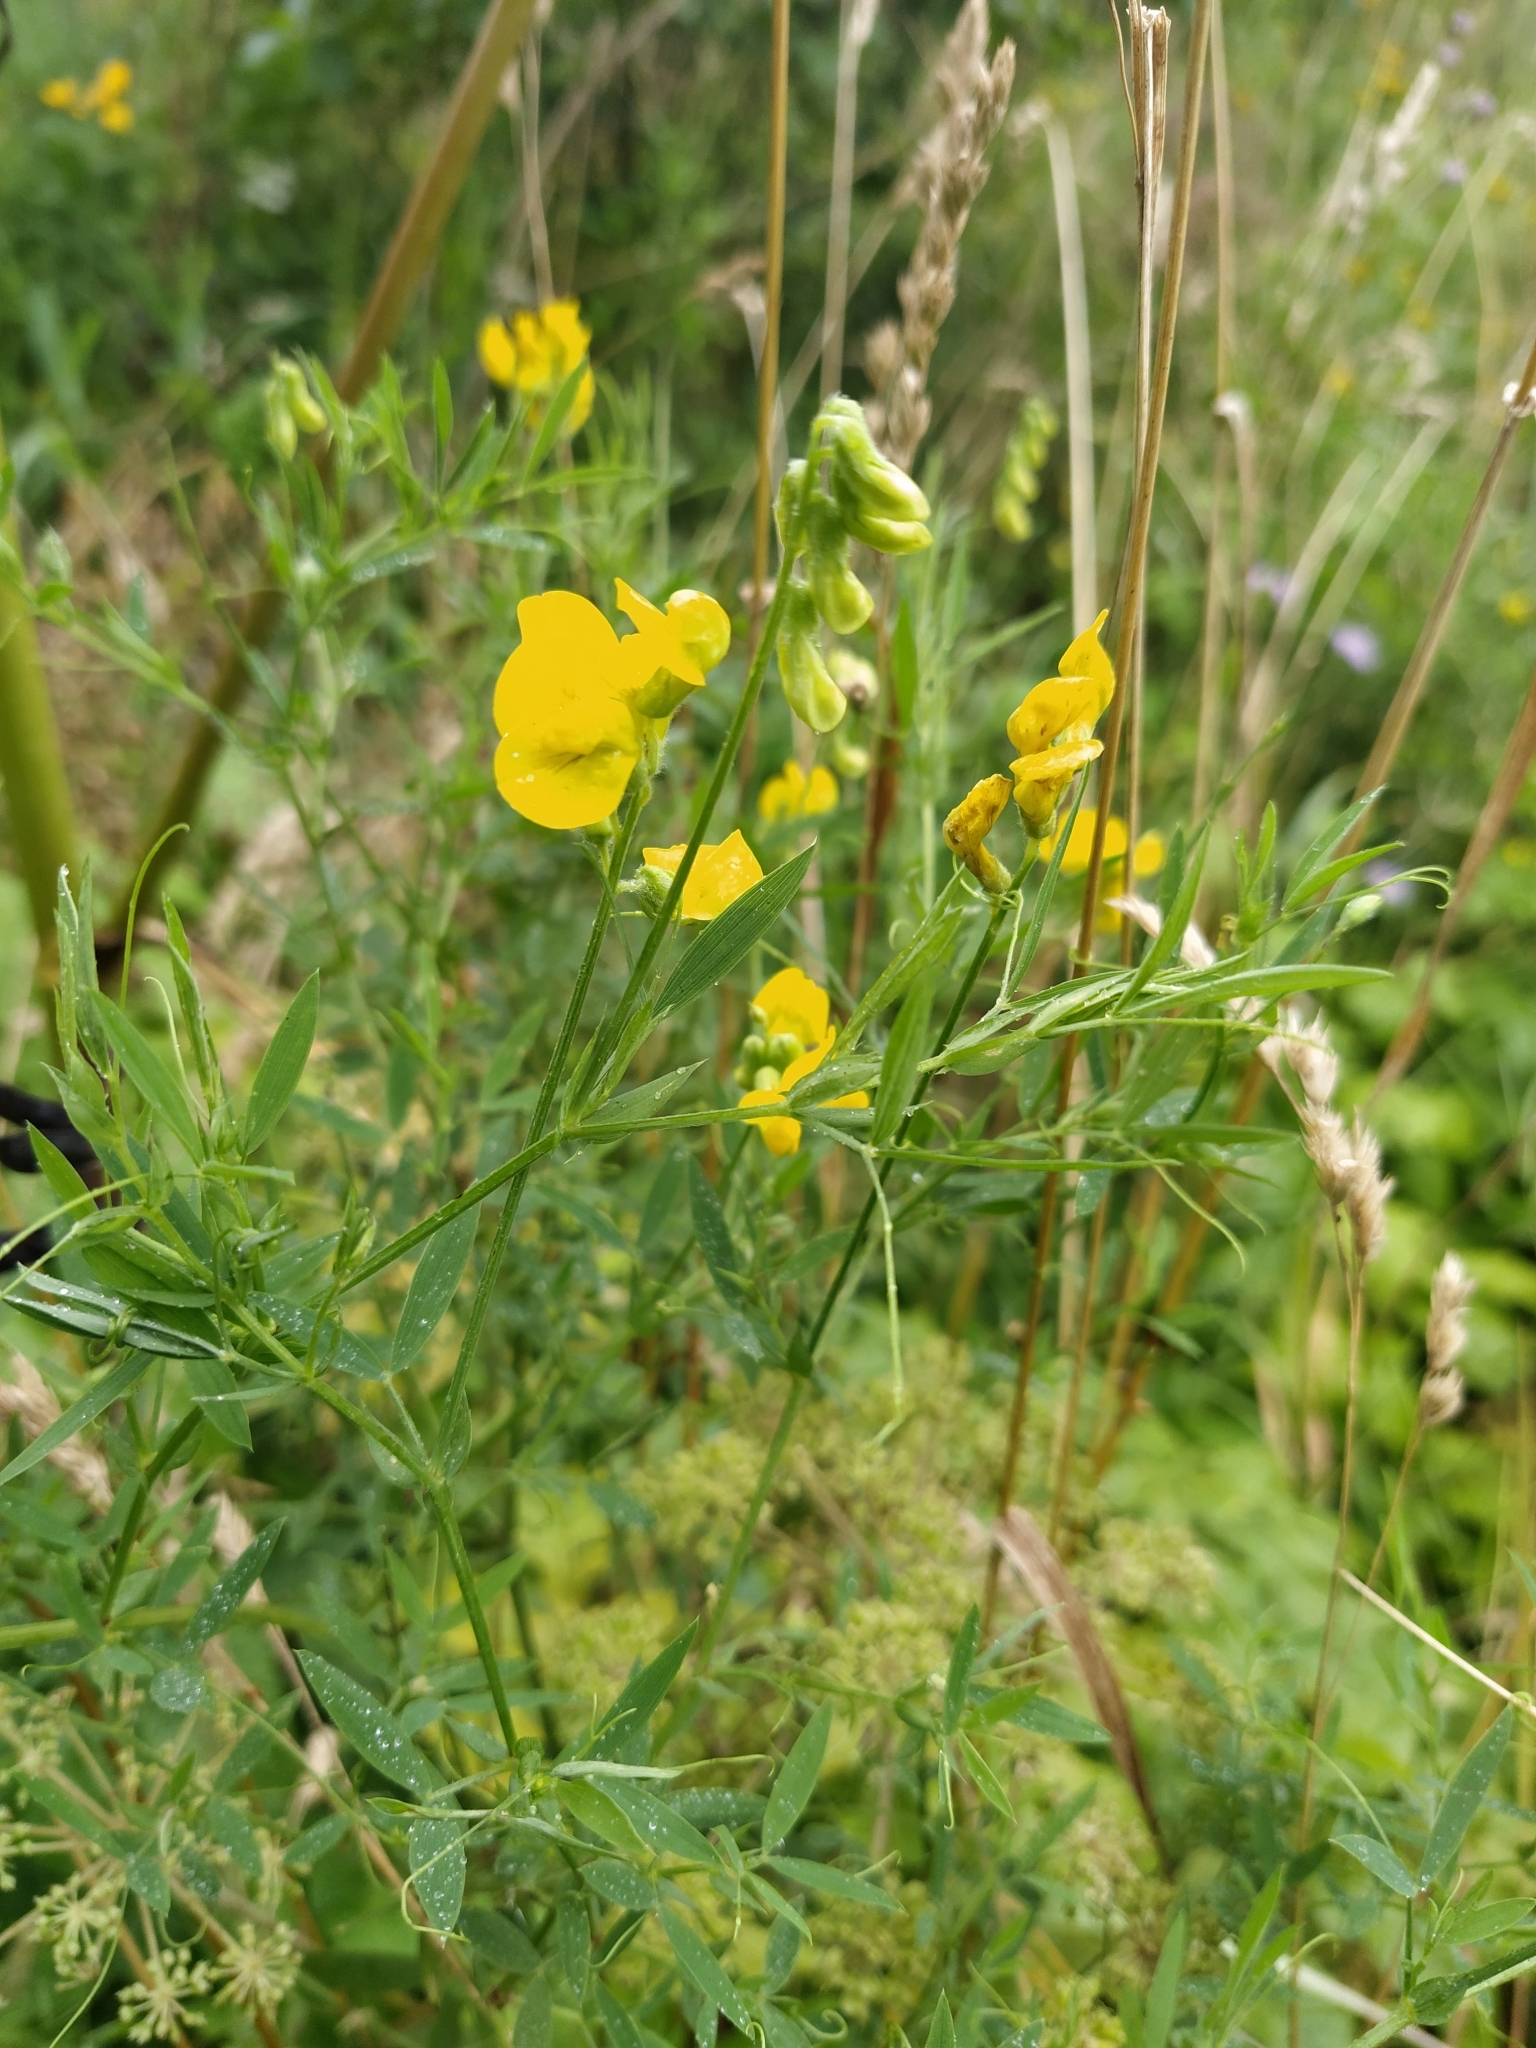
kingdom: Plantae
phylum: Tracheophyta
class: Magnoliopsida
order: Fabales
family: Fabaceae
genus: Lathyrus
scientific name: Lathyrus pratensis
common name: Meadow vetchling
